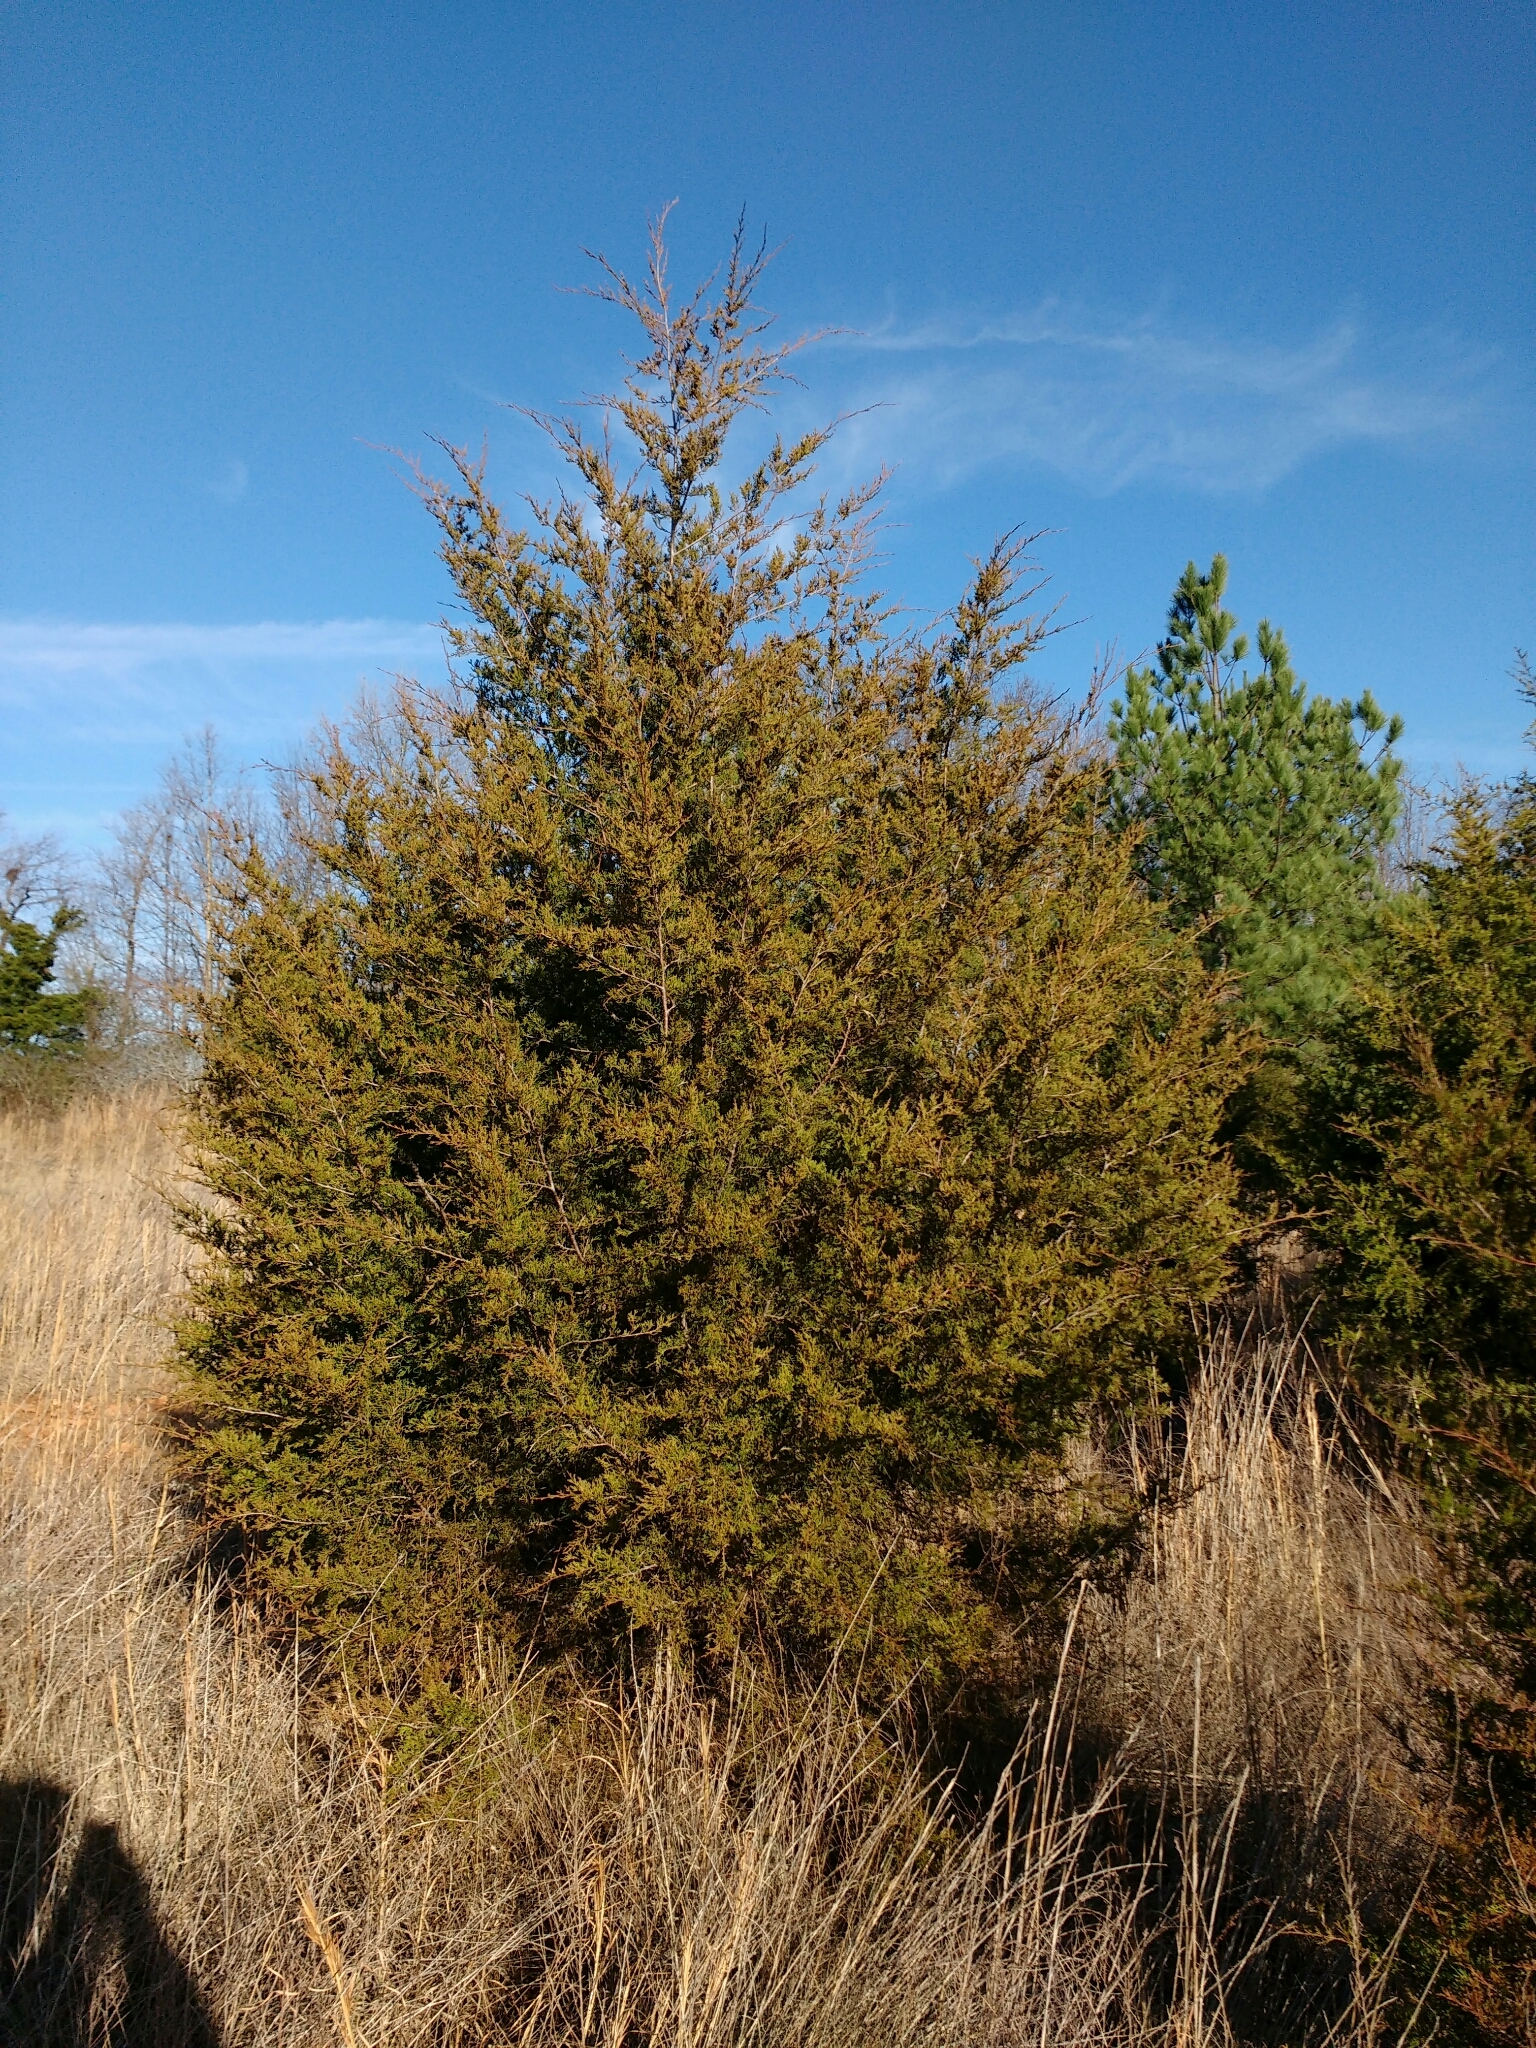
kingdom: Plantae
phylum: Tracheophyta
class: Pinopsida
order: Pinales
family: Cupressaceae
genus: Juniperus
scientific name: Juniperus virginiana
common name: Red juniper
